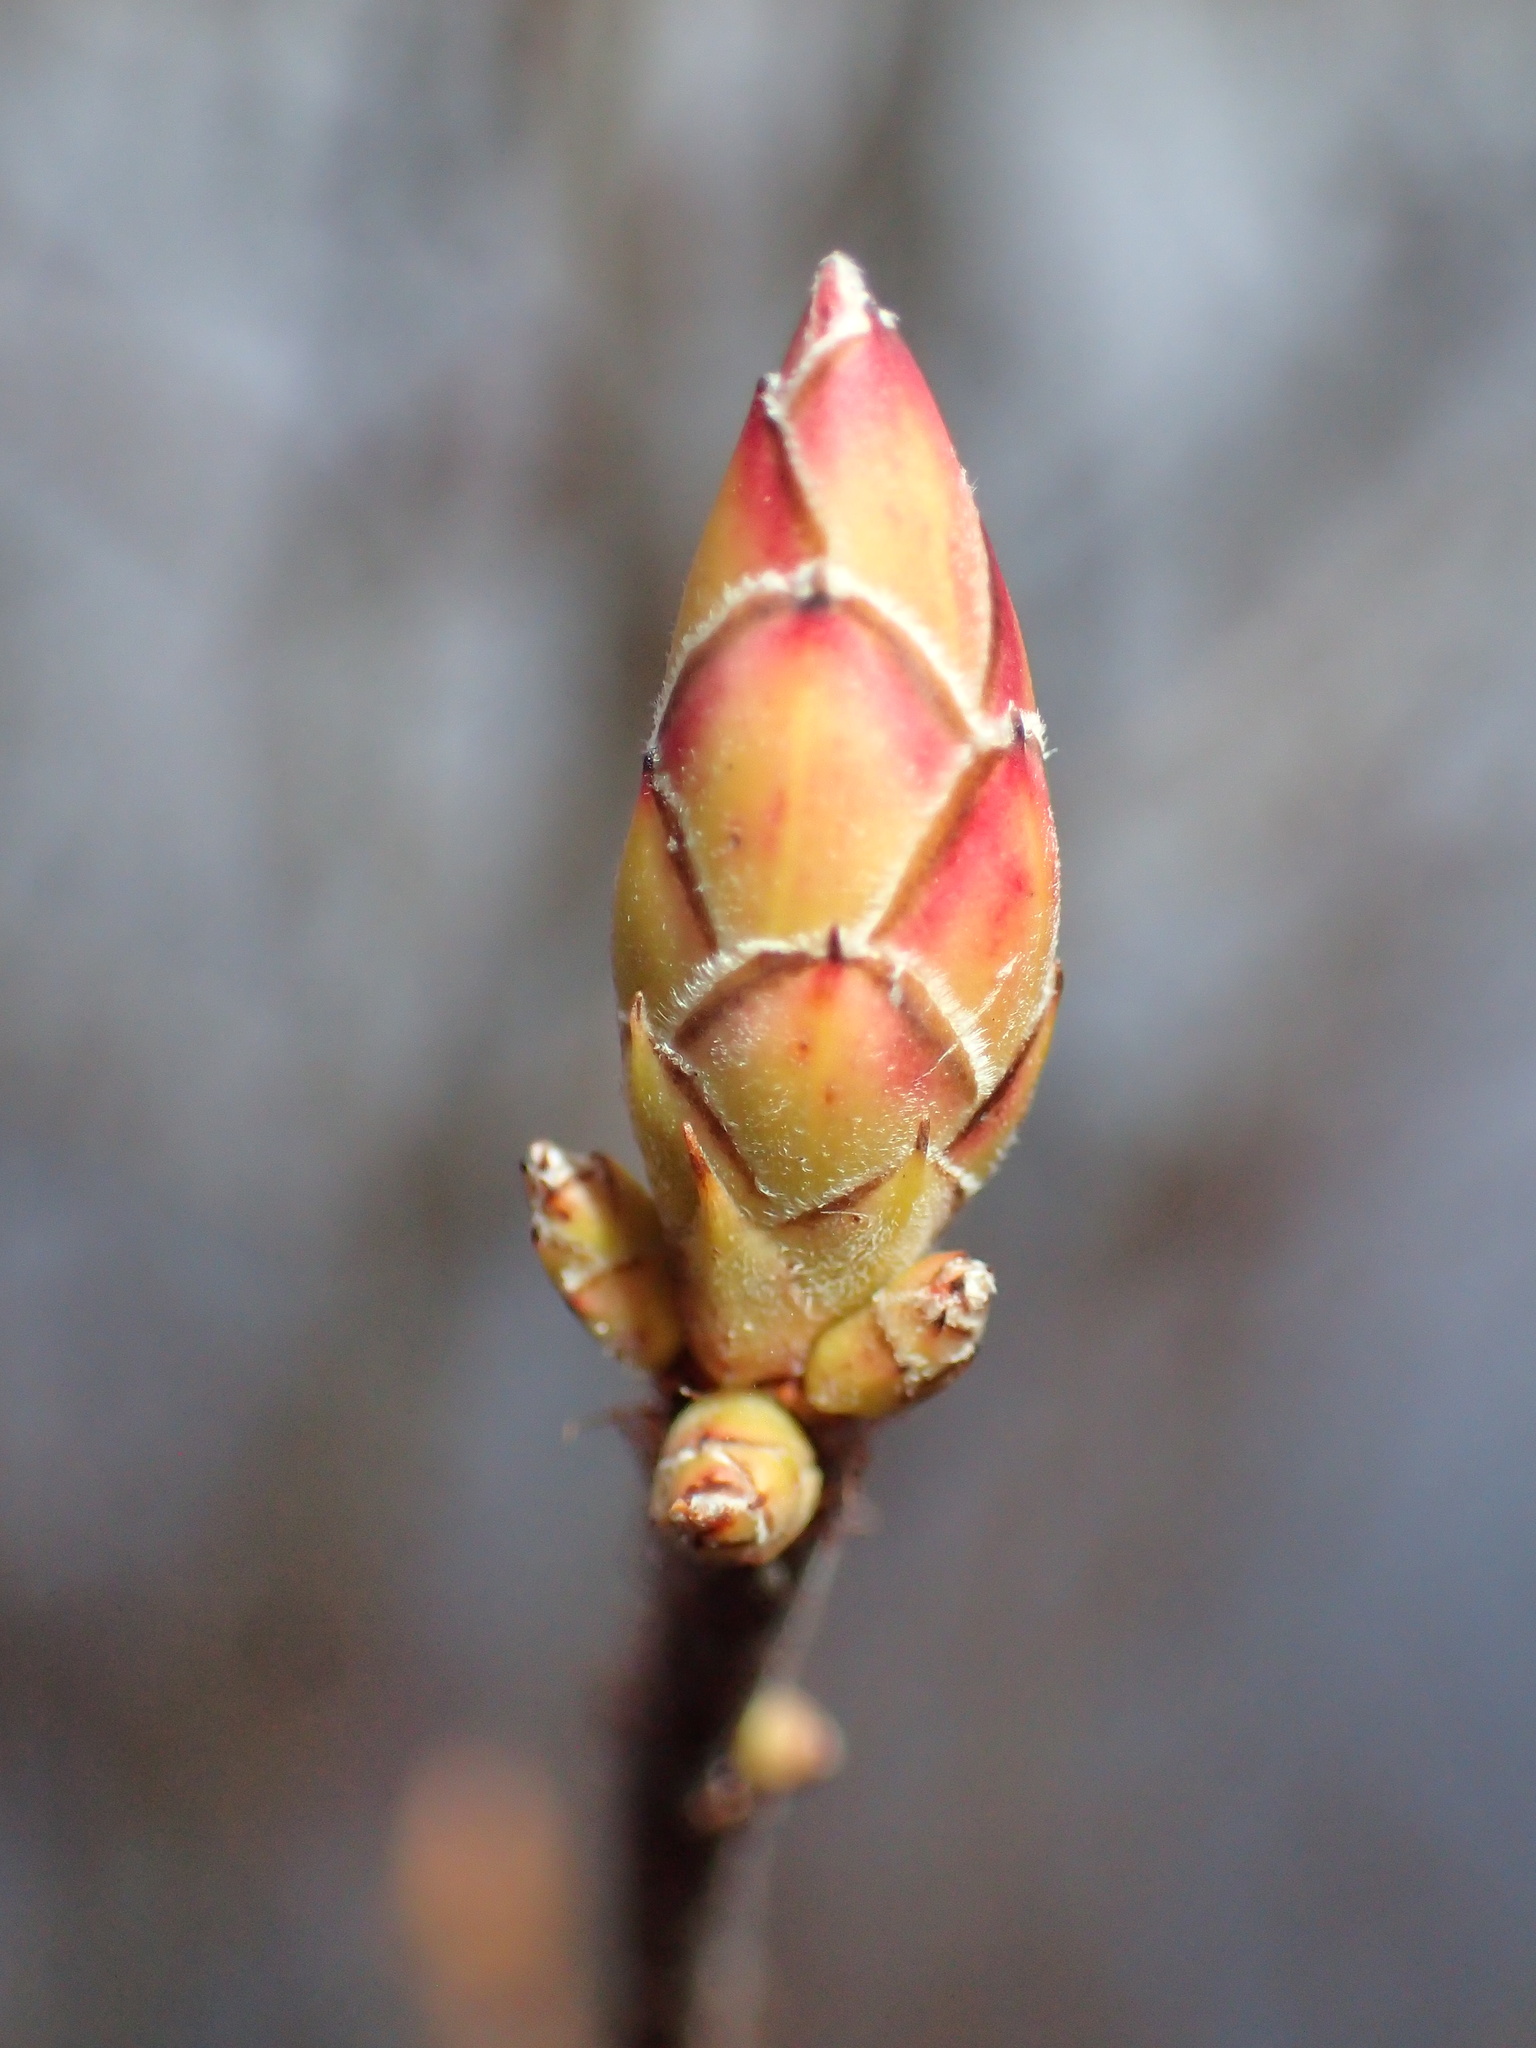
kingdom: Plantae
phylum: Tracheophyta
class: Magnoliopsida
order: Ericales
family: Ericaceae
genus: Rhododendron
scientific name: Rhododendron viscosum
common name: Clammy azalea
